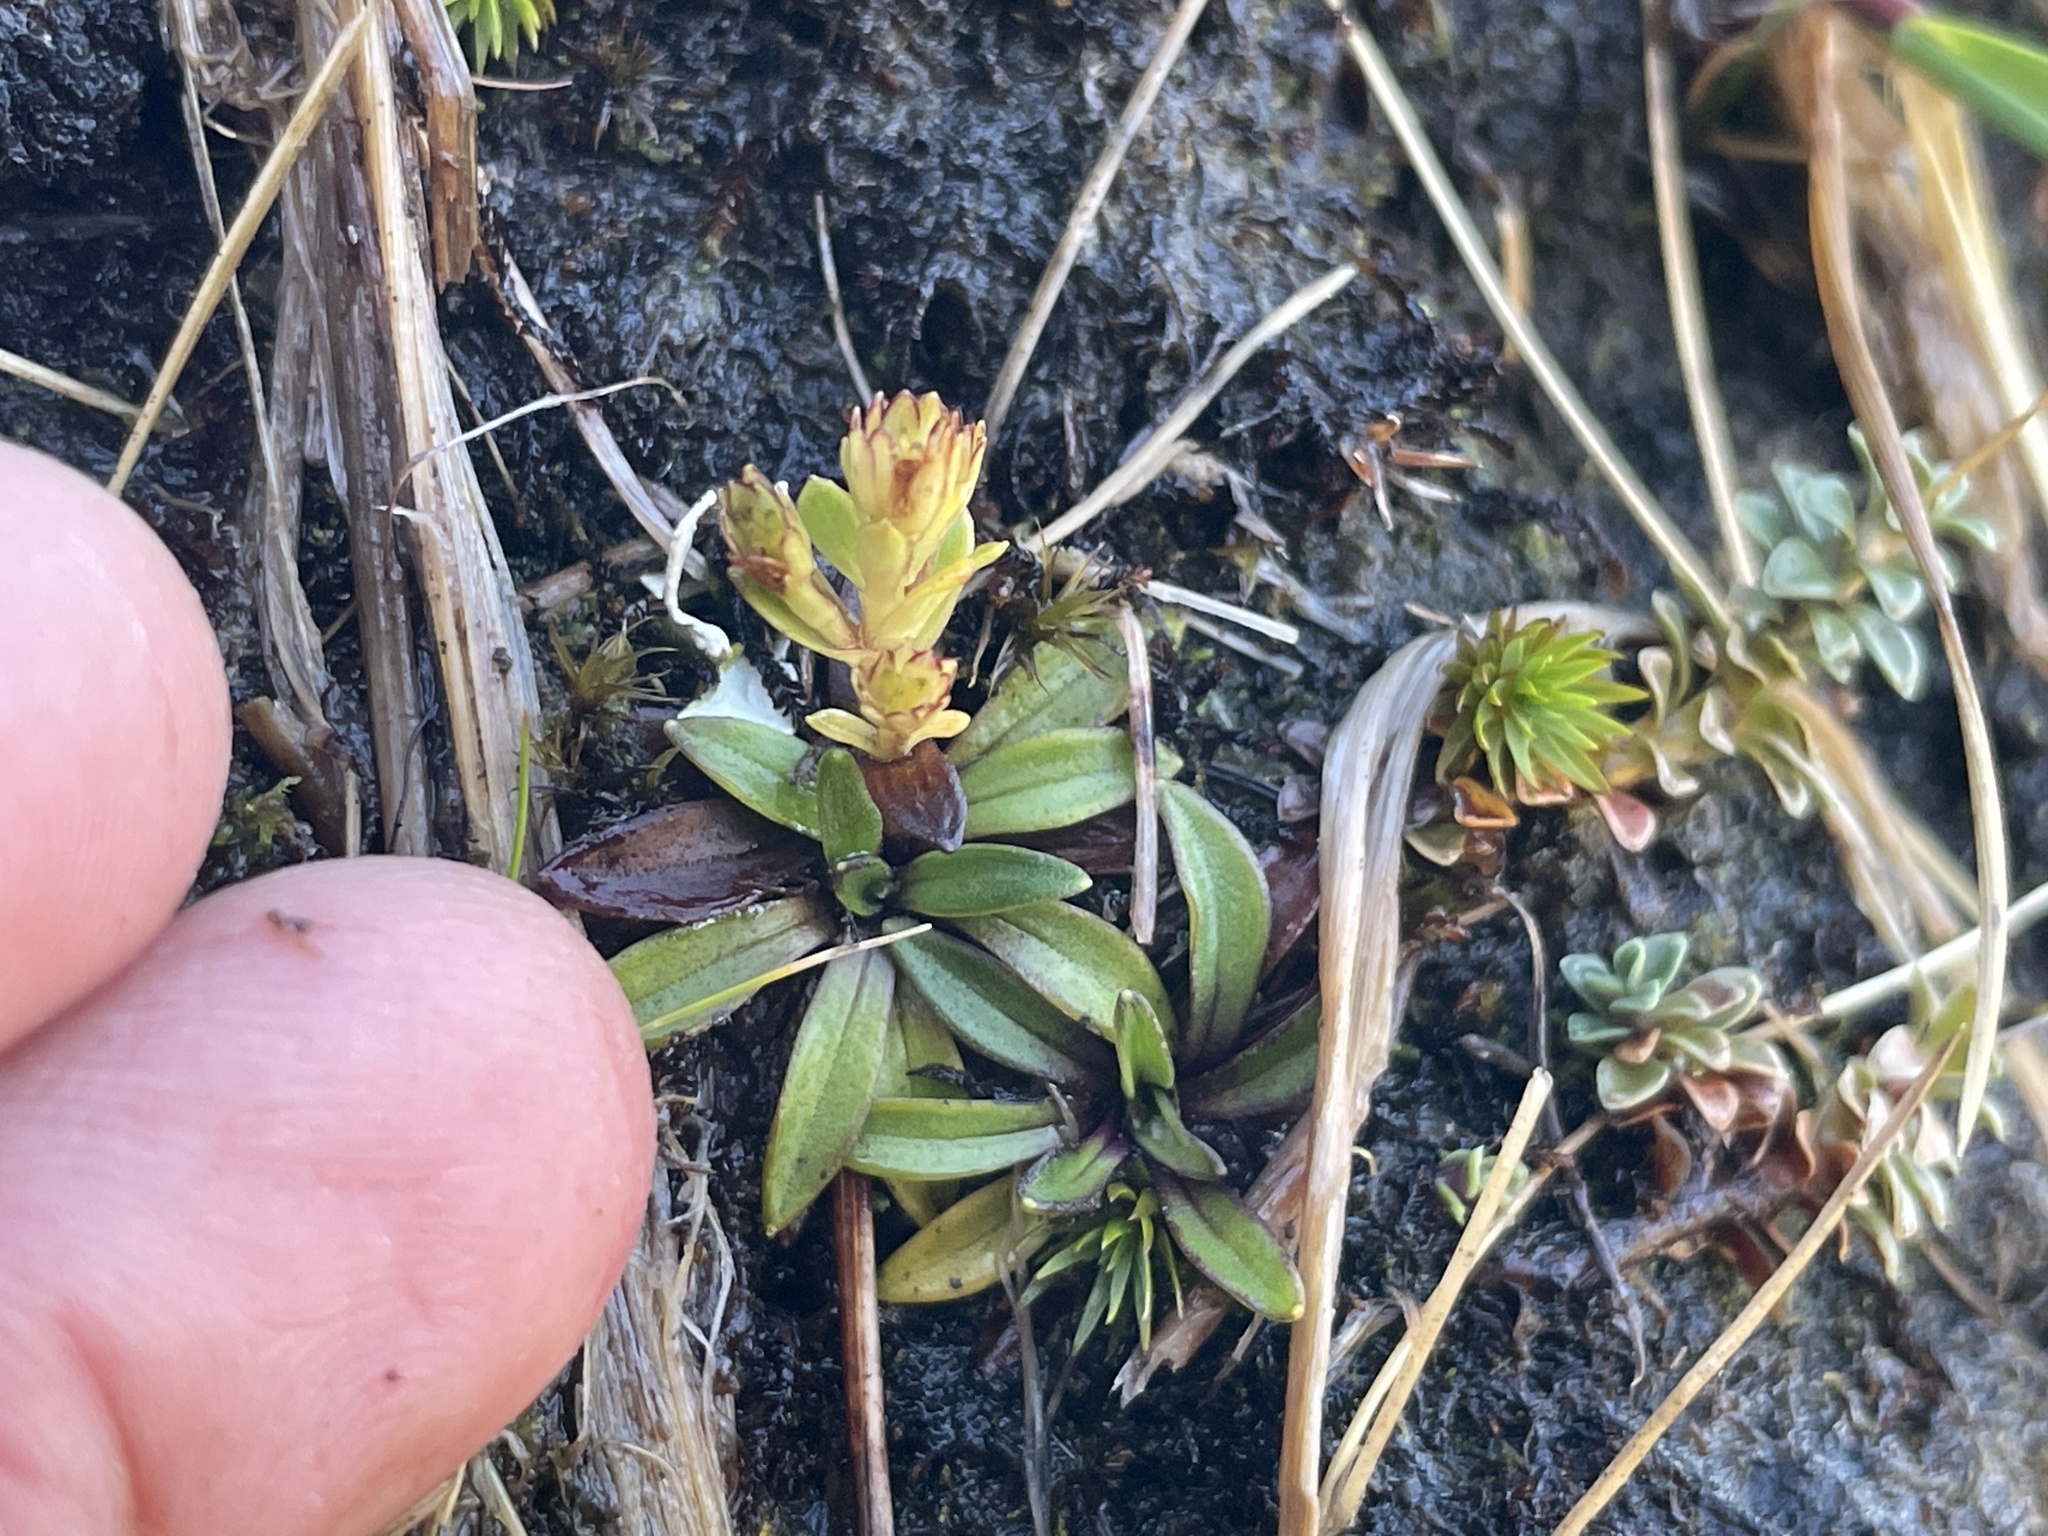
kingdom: Plantae
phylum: Tracheophyta
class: Magnoliopsida
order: Asterales
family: Asteraceae
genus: Abrotanella
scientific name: Abrotanella rostrata
